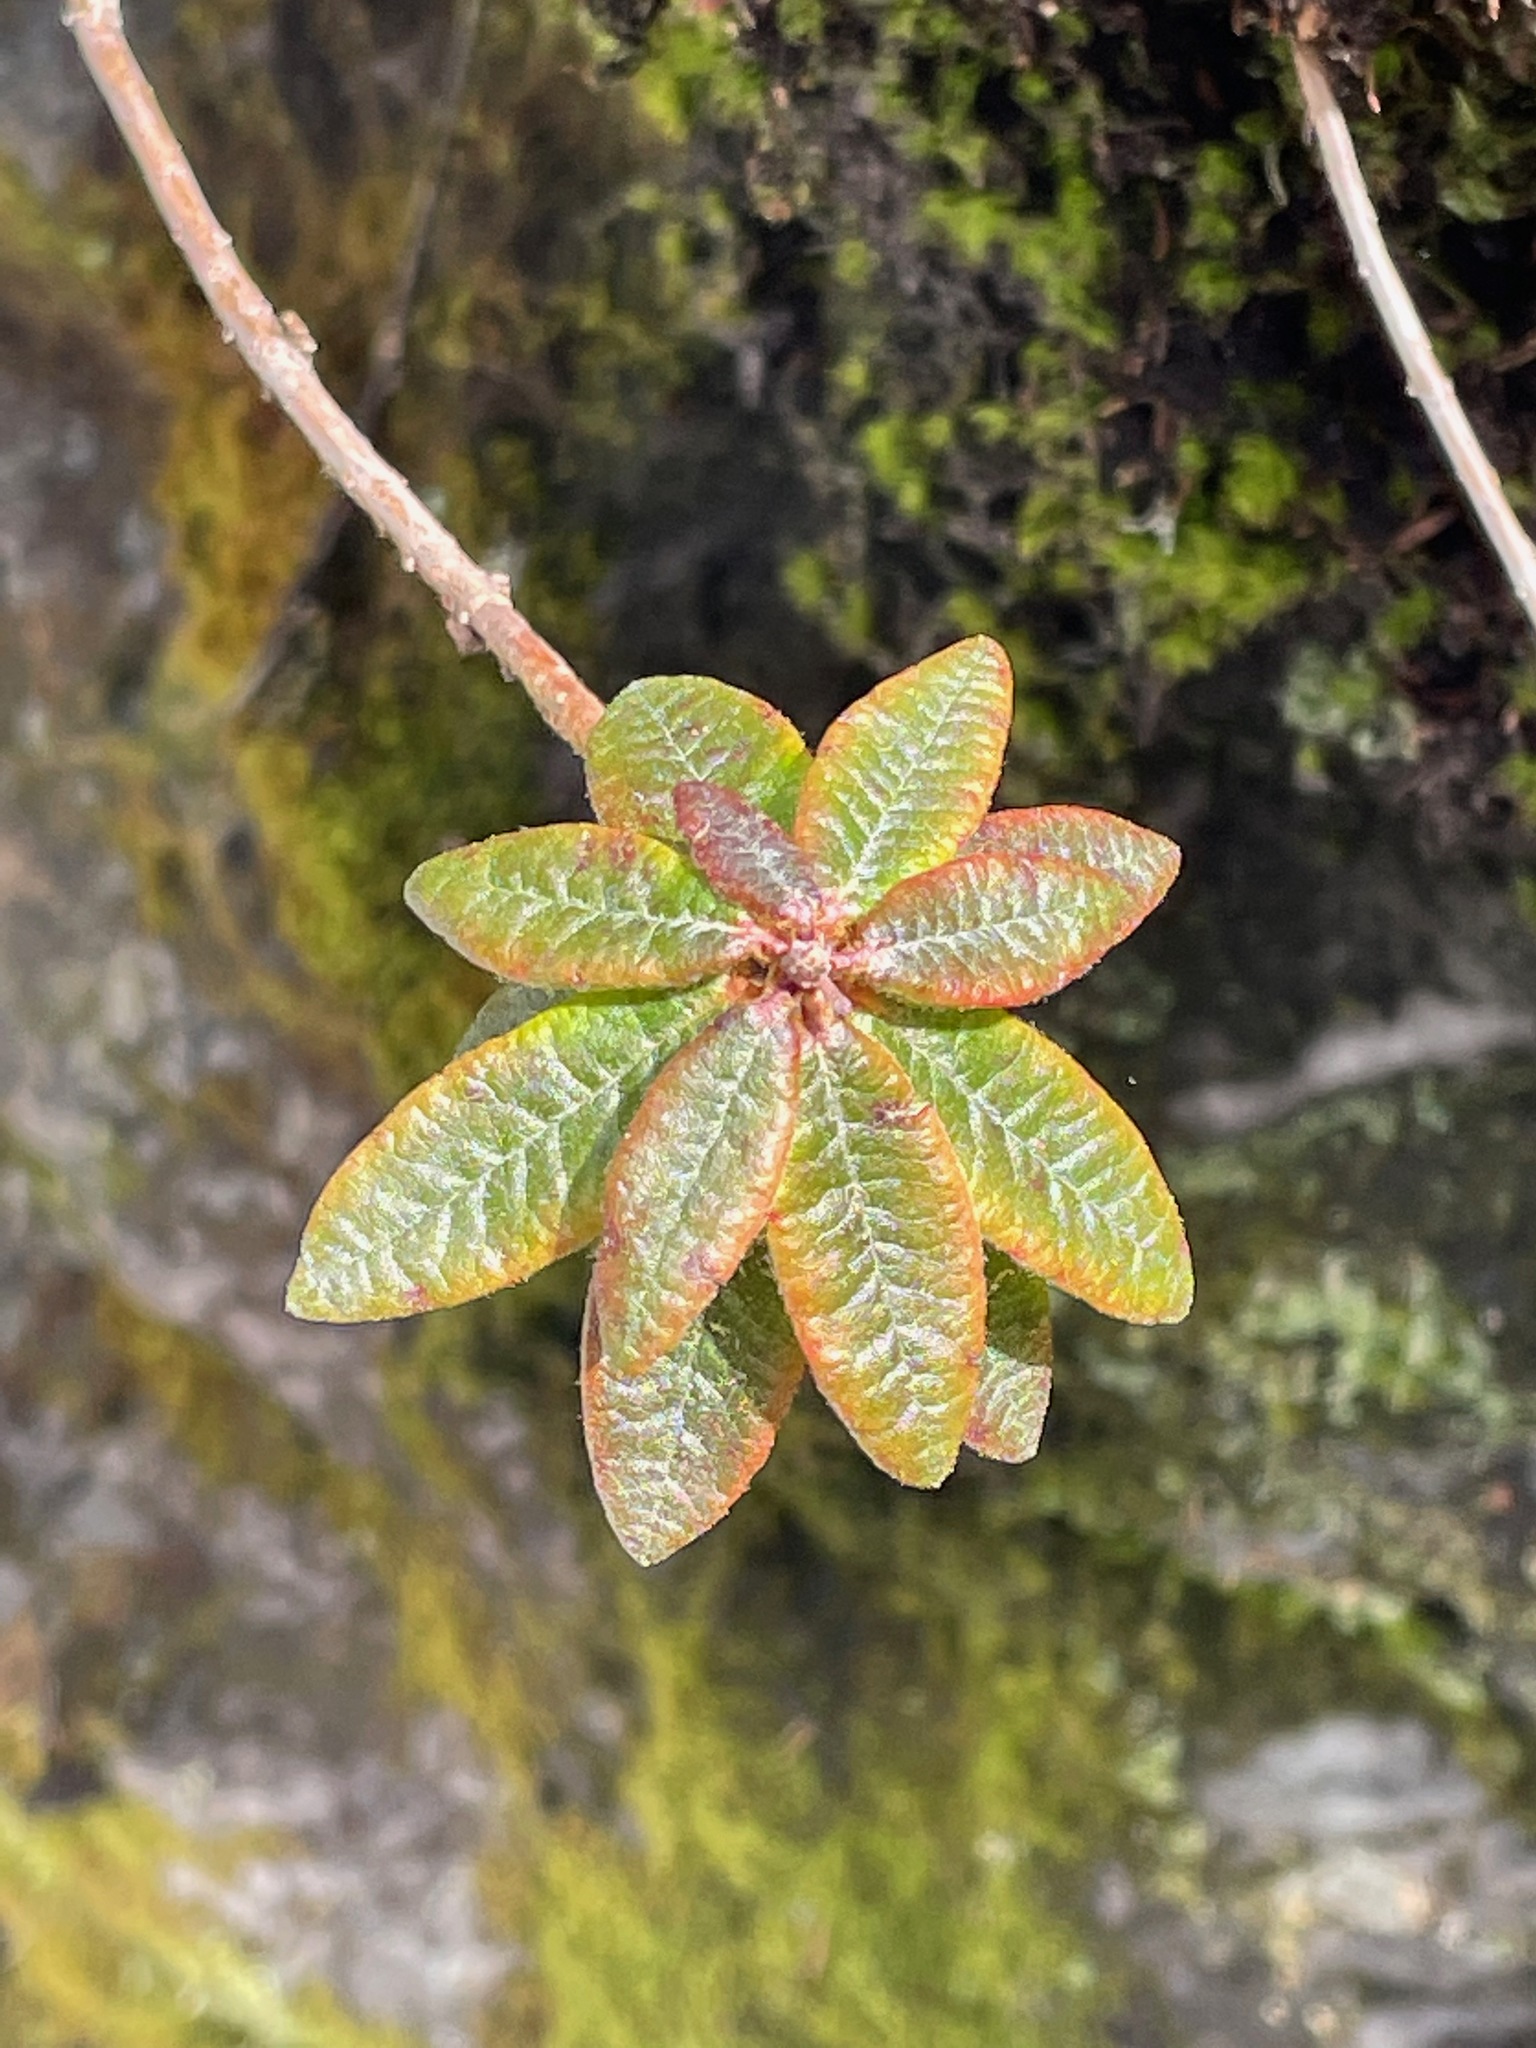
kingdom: Plantae
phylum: Tracheophyta
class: Magnoliopsida
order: Ericales
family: Ericaceae
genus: Rhododendron
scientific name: Rhododendron groenlandicum
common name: Bog labrador tea
